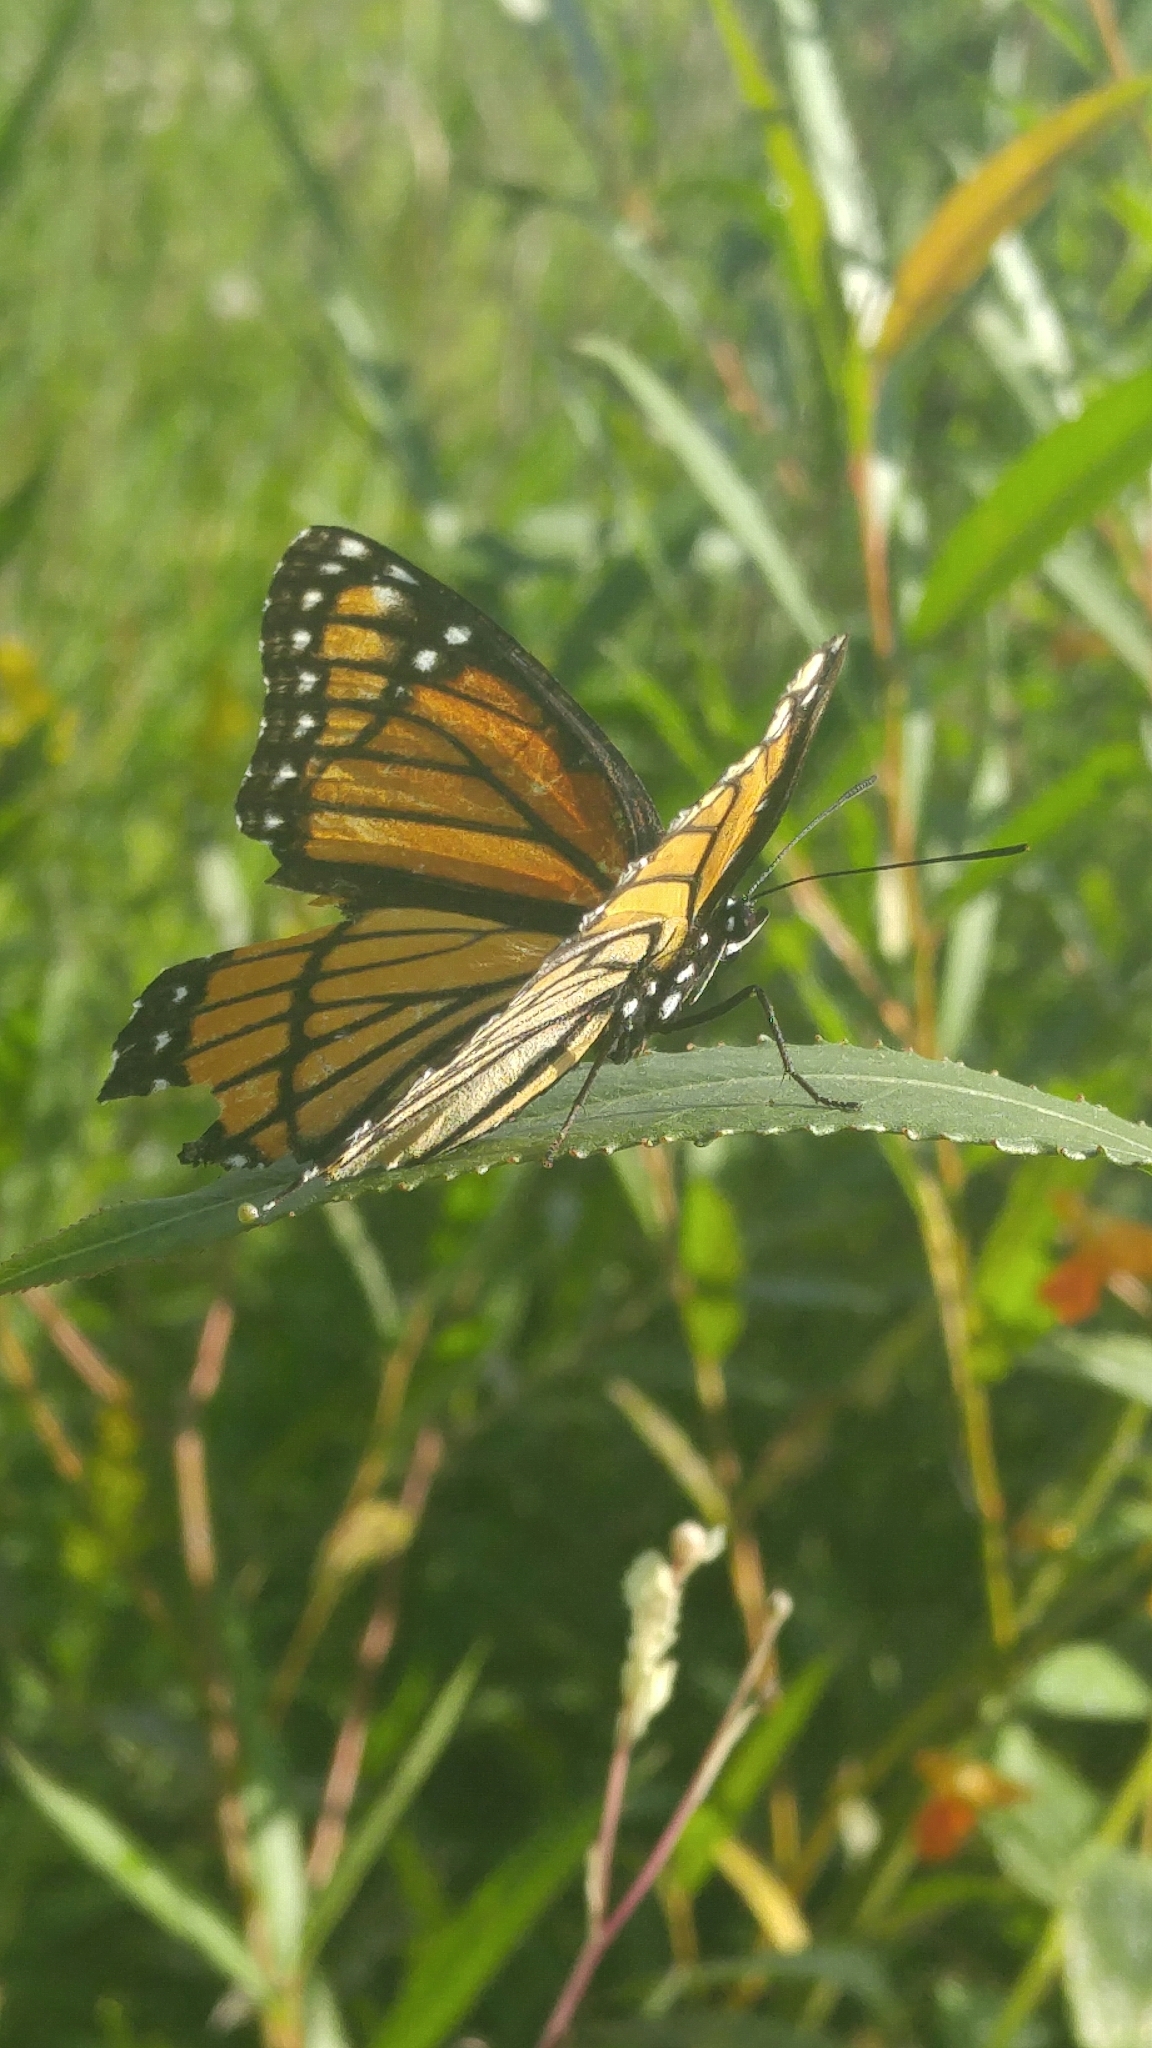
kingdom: Animalia
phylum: Arthropoda
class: Insecta
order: Lepidoptera
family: Nymphalidae
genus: Limenitis
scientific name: Limenitis archippus
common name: Viceroy
